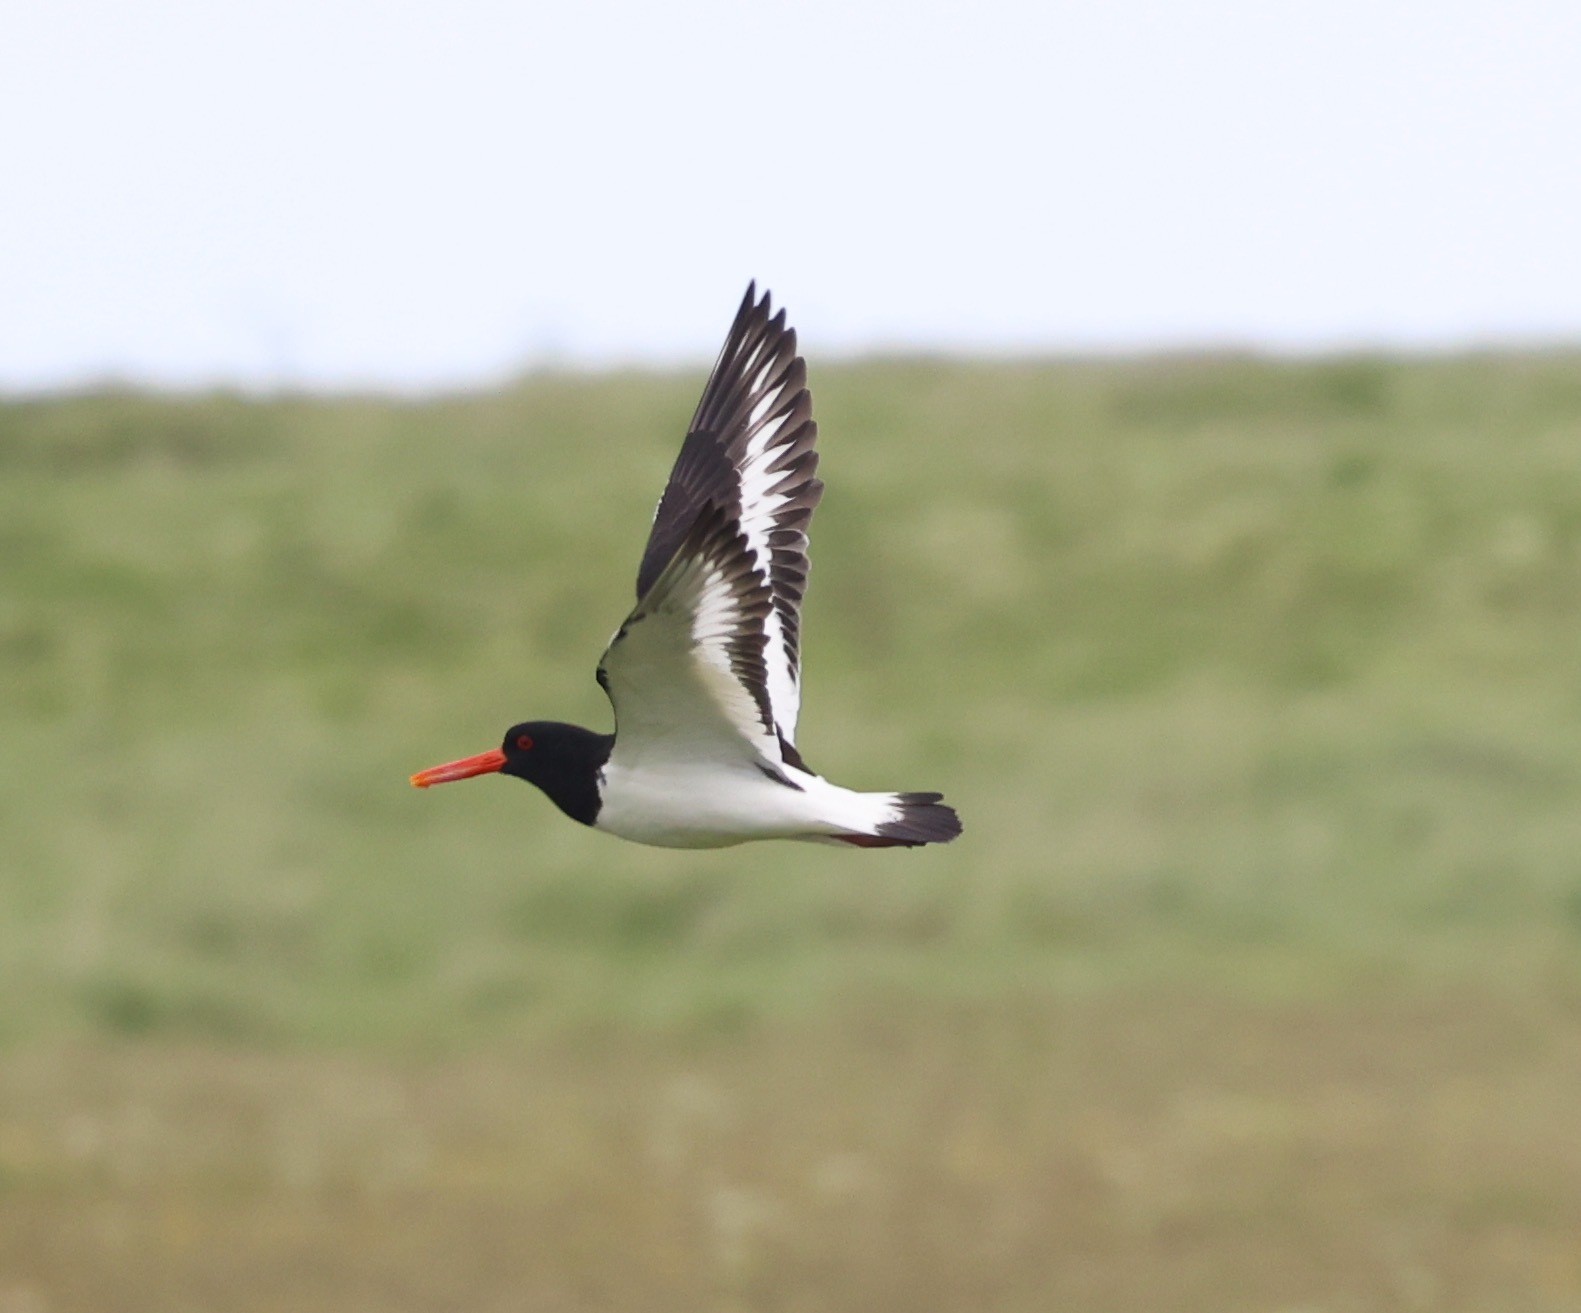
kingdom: Animalia
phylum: Chordata
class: Aves
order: Charadriiformes
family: Haematopodidae
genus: Haematopus
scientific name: Haematopus ostralegus
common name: Eurasian oystercatcher
